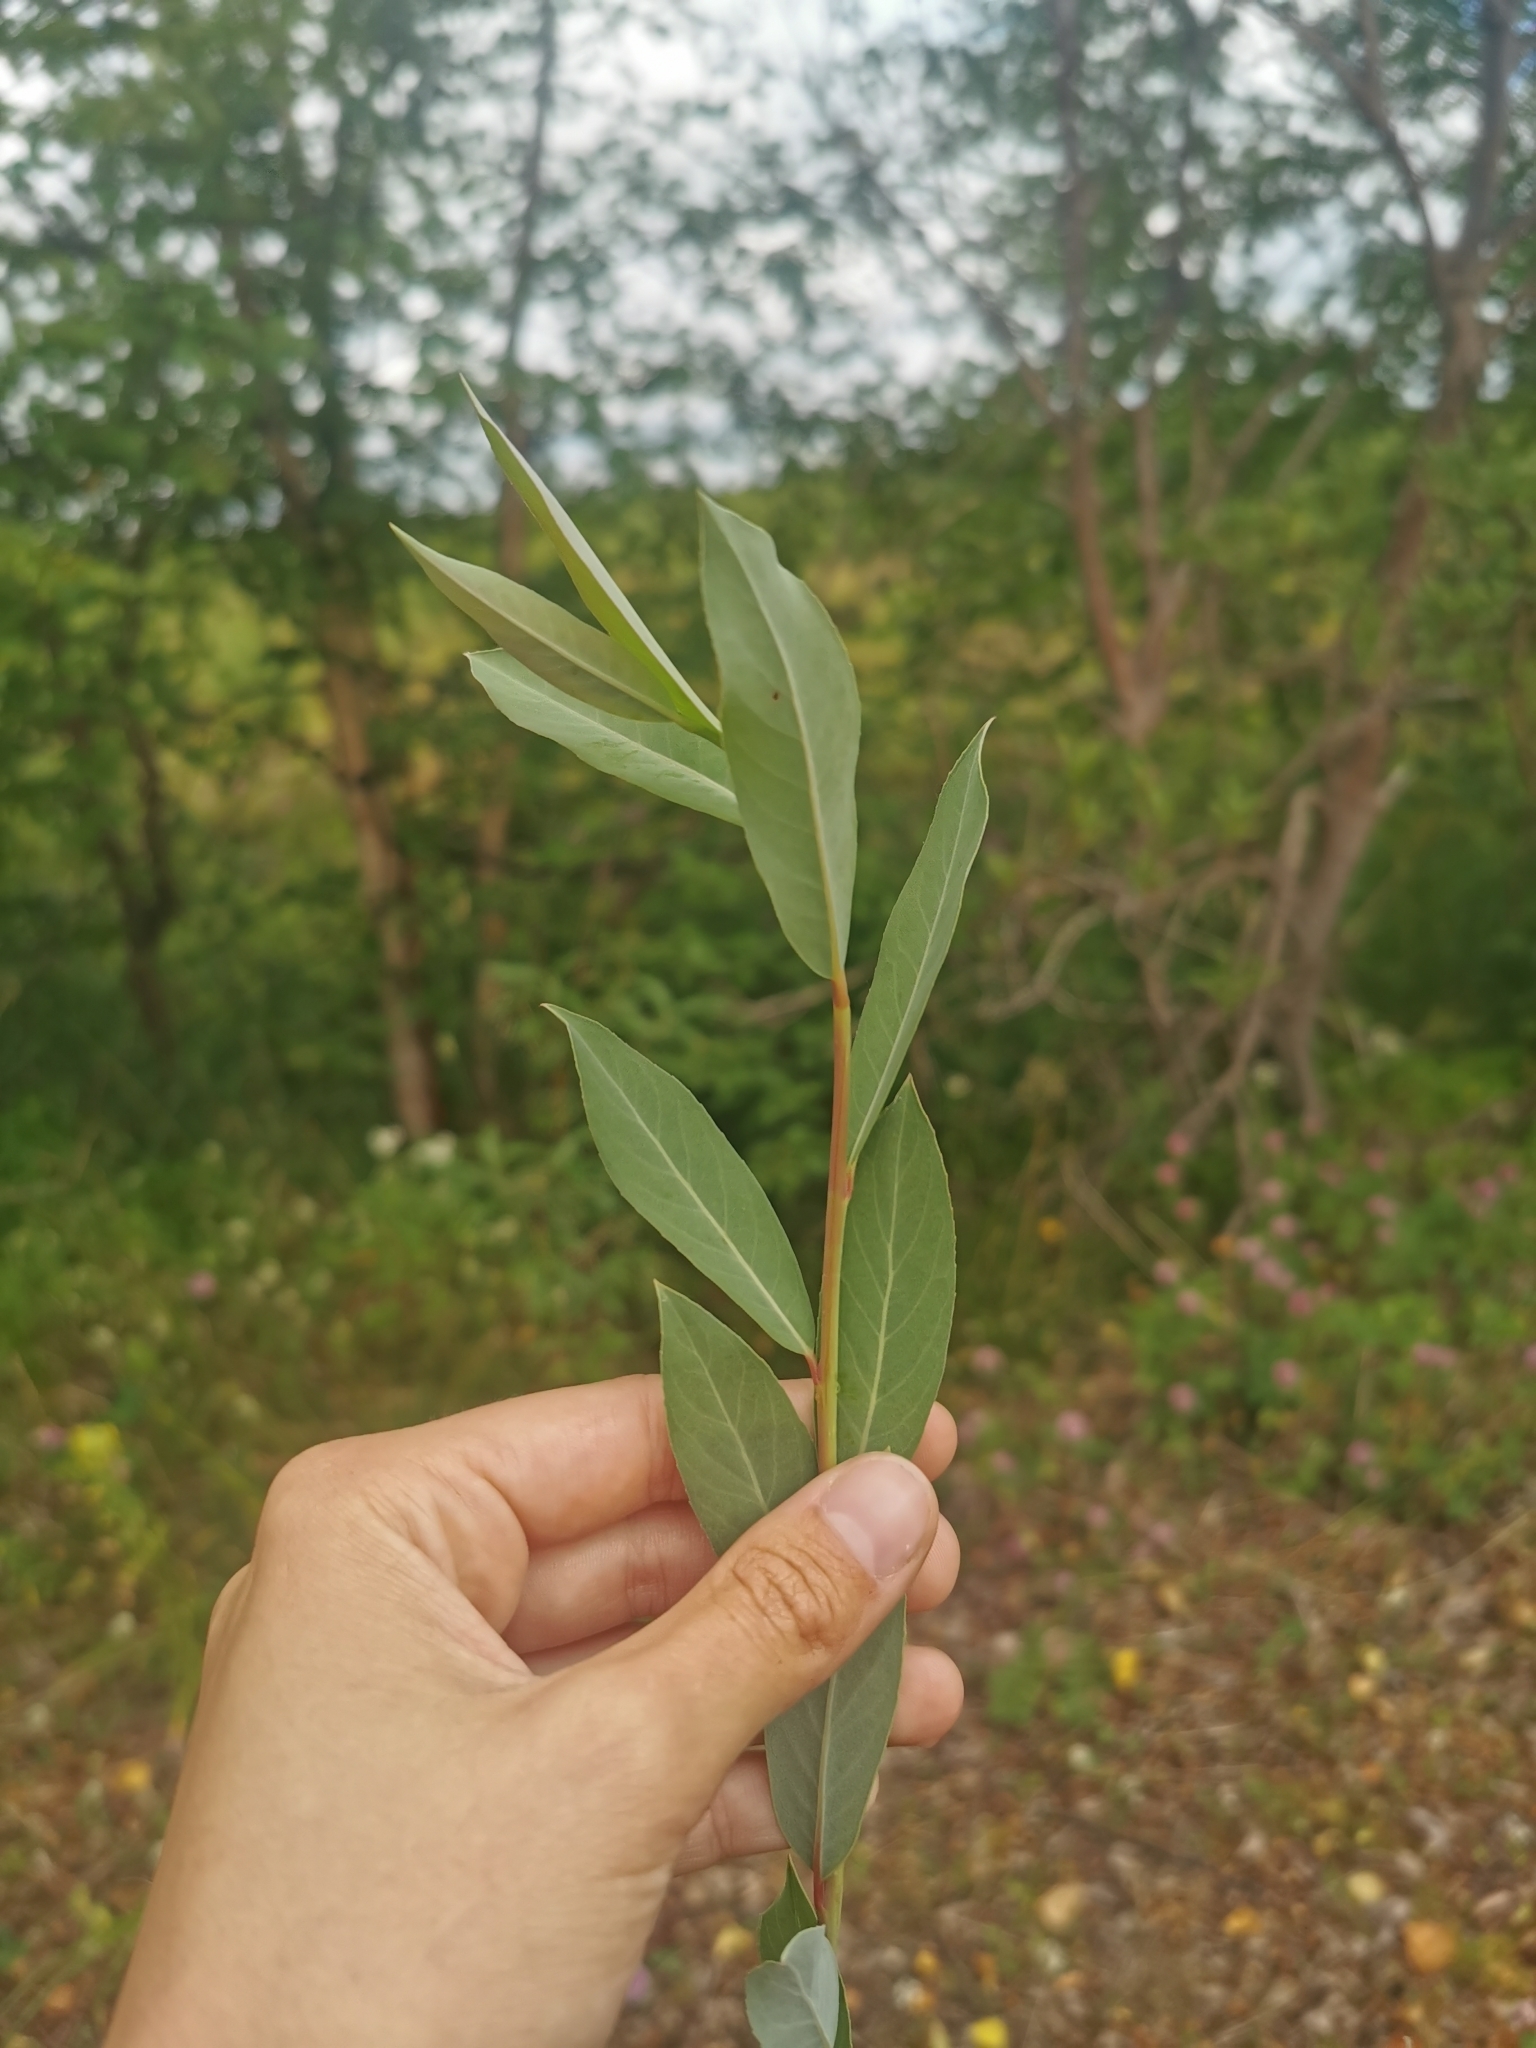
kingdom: Plantae
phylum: Tracheophyta
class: Magnoliopsida
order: Malpighiales
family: Salicaceae
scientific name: Salicaceae
